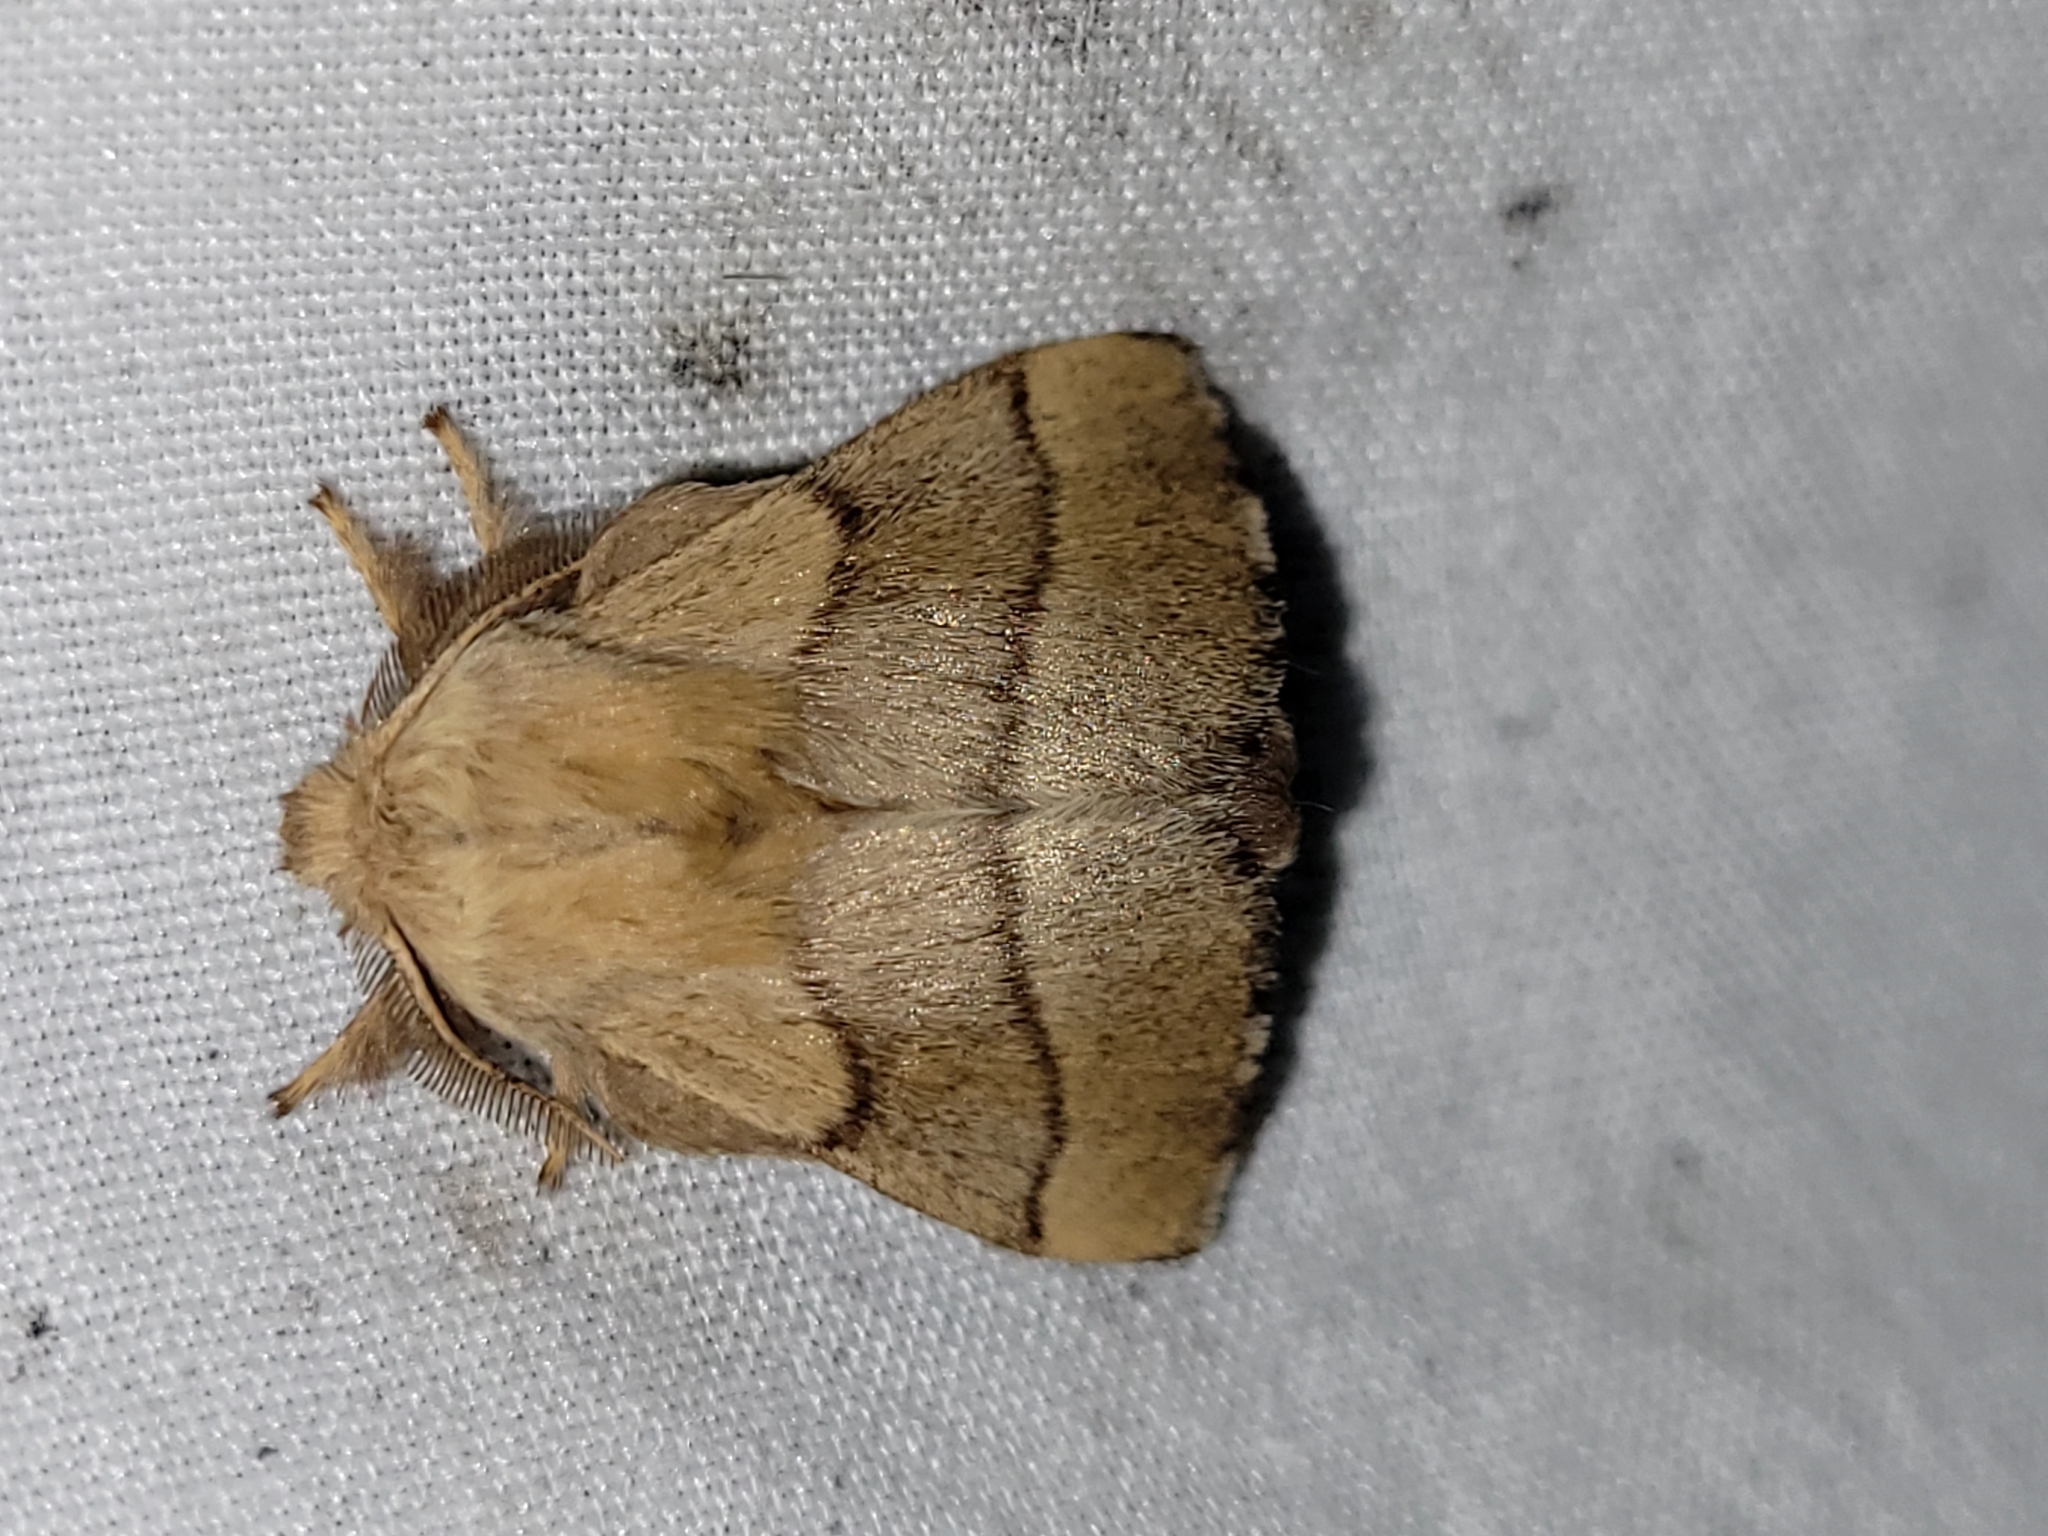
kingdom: Animalia
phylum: Arthropoda
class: Insecta
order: Lepidoptera
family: Lasiocampidae
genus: Malacosoma
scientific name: Malacosoma disstria
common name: Forest tent caterpillar
